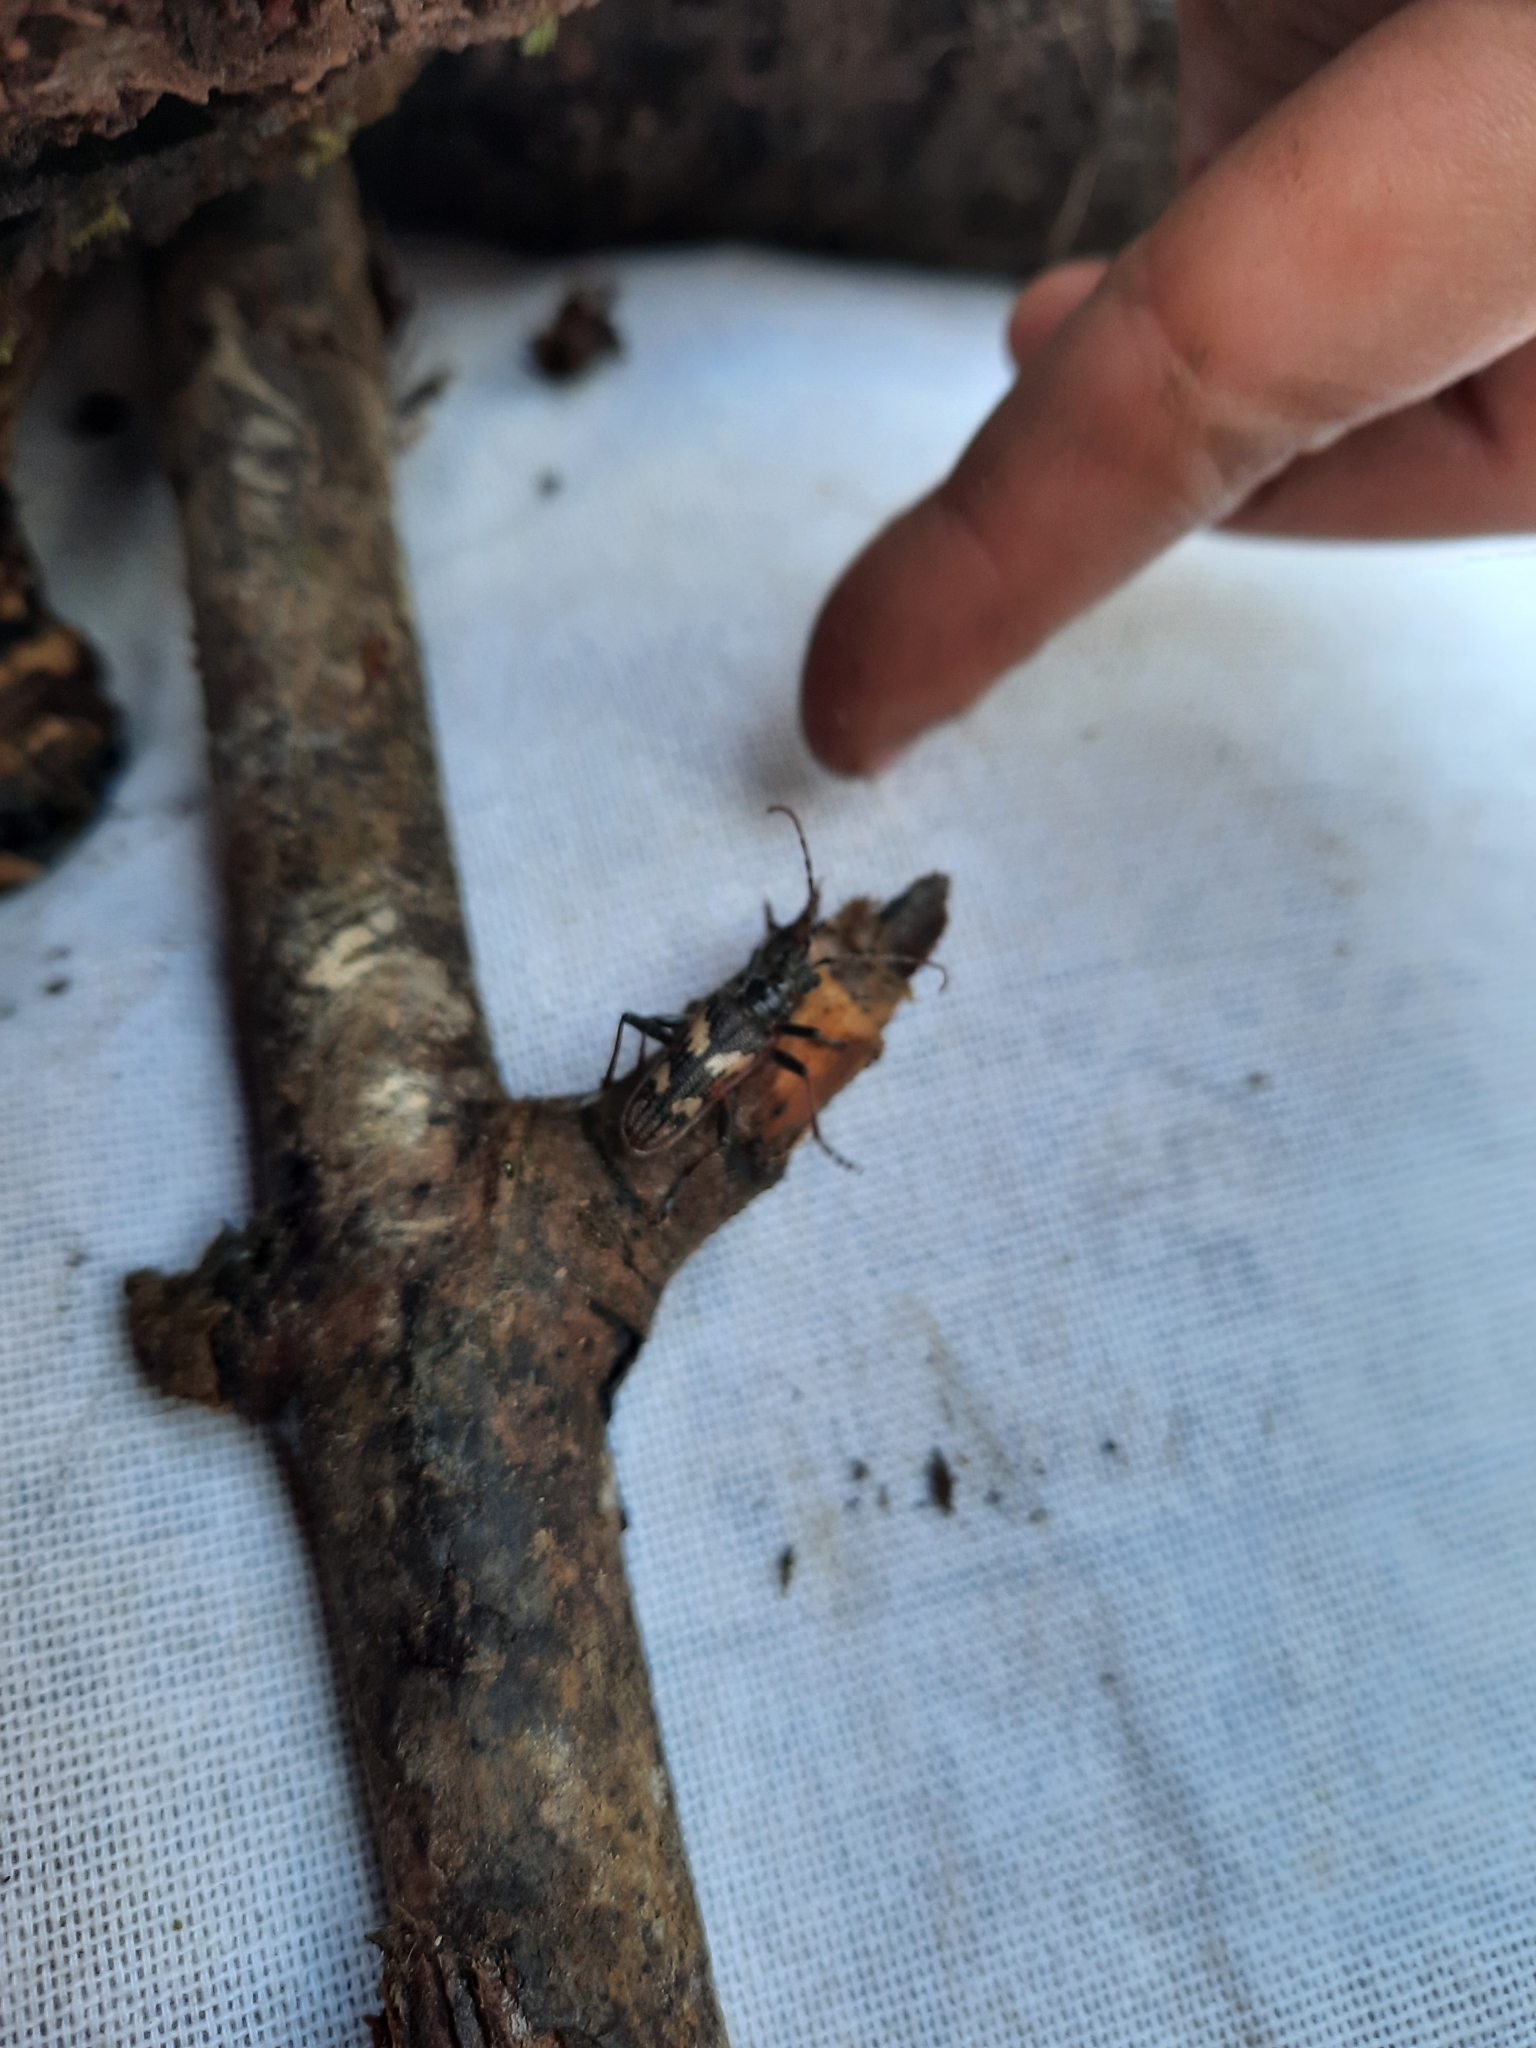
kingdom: Animalia
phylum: Arthropoda
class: Insecta
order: Coleoptera
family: Cerambycidae
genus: Rhagium
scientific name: Rhagium bifasciatum
